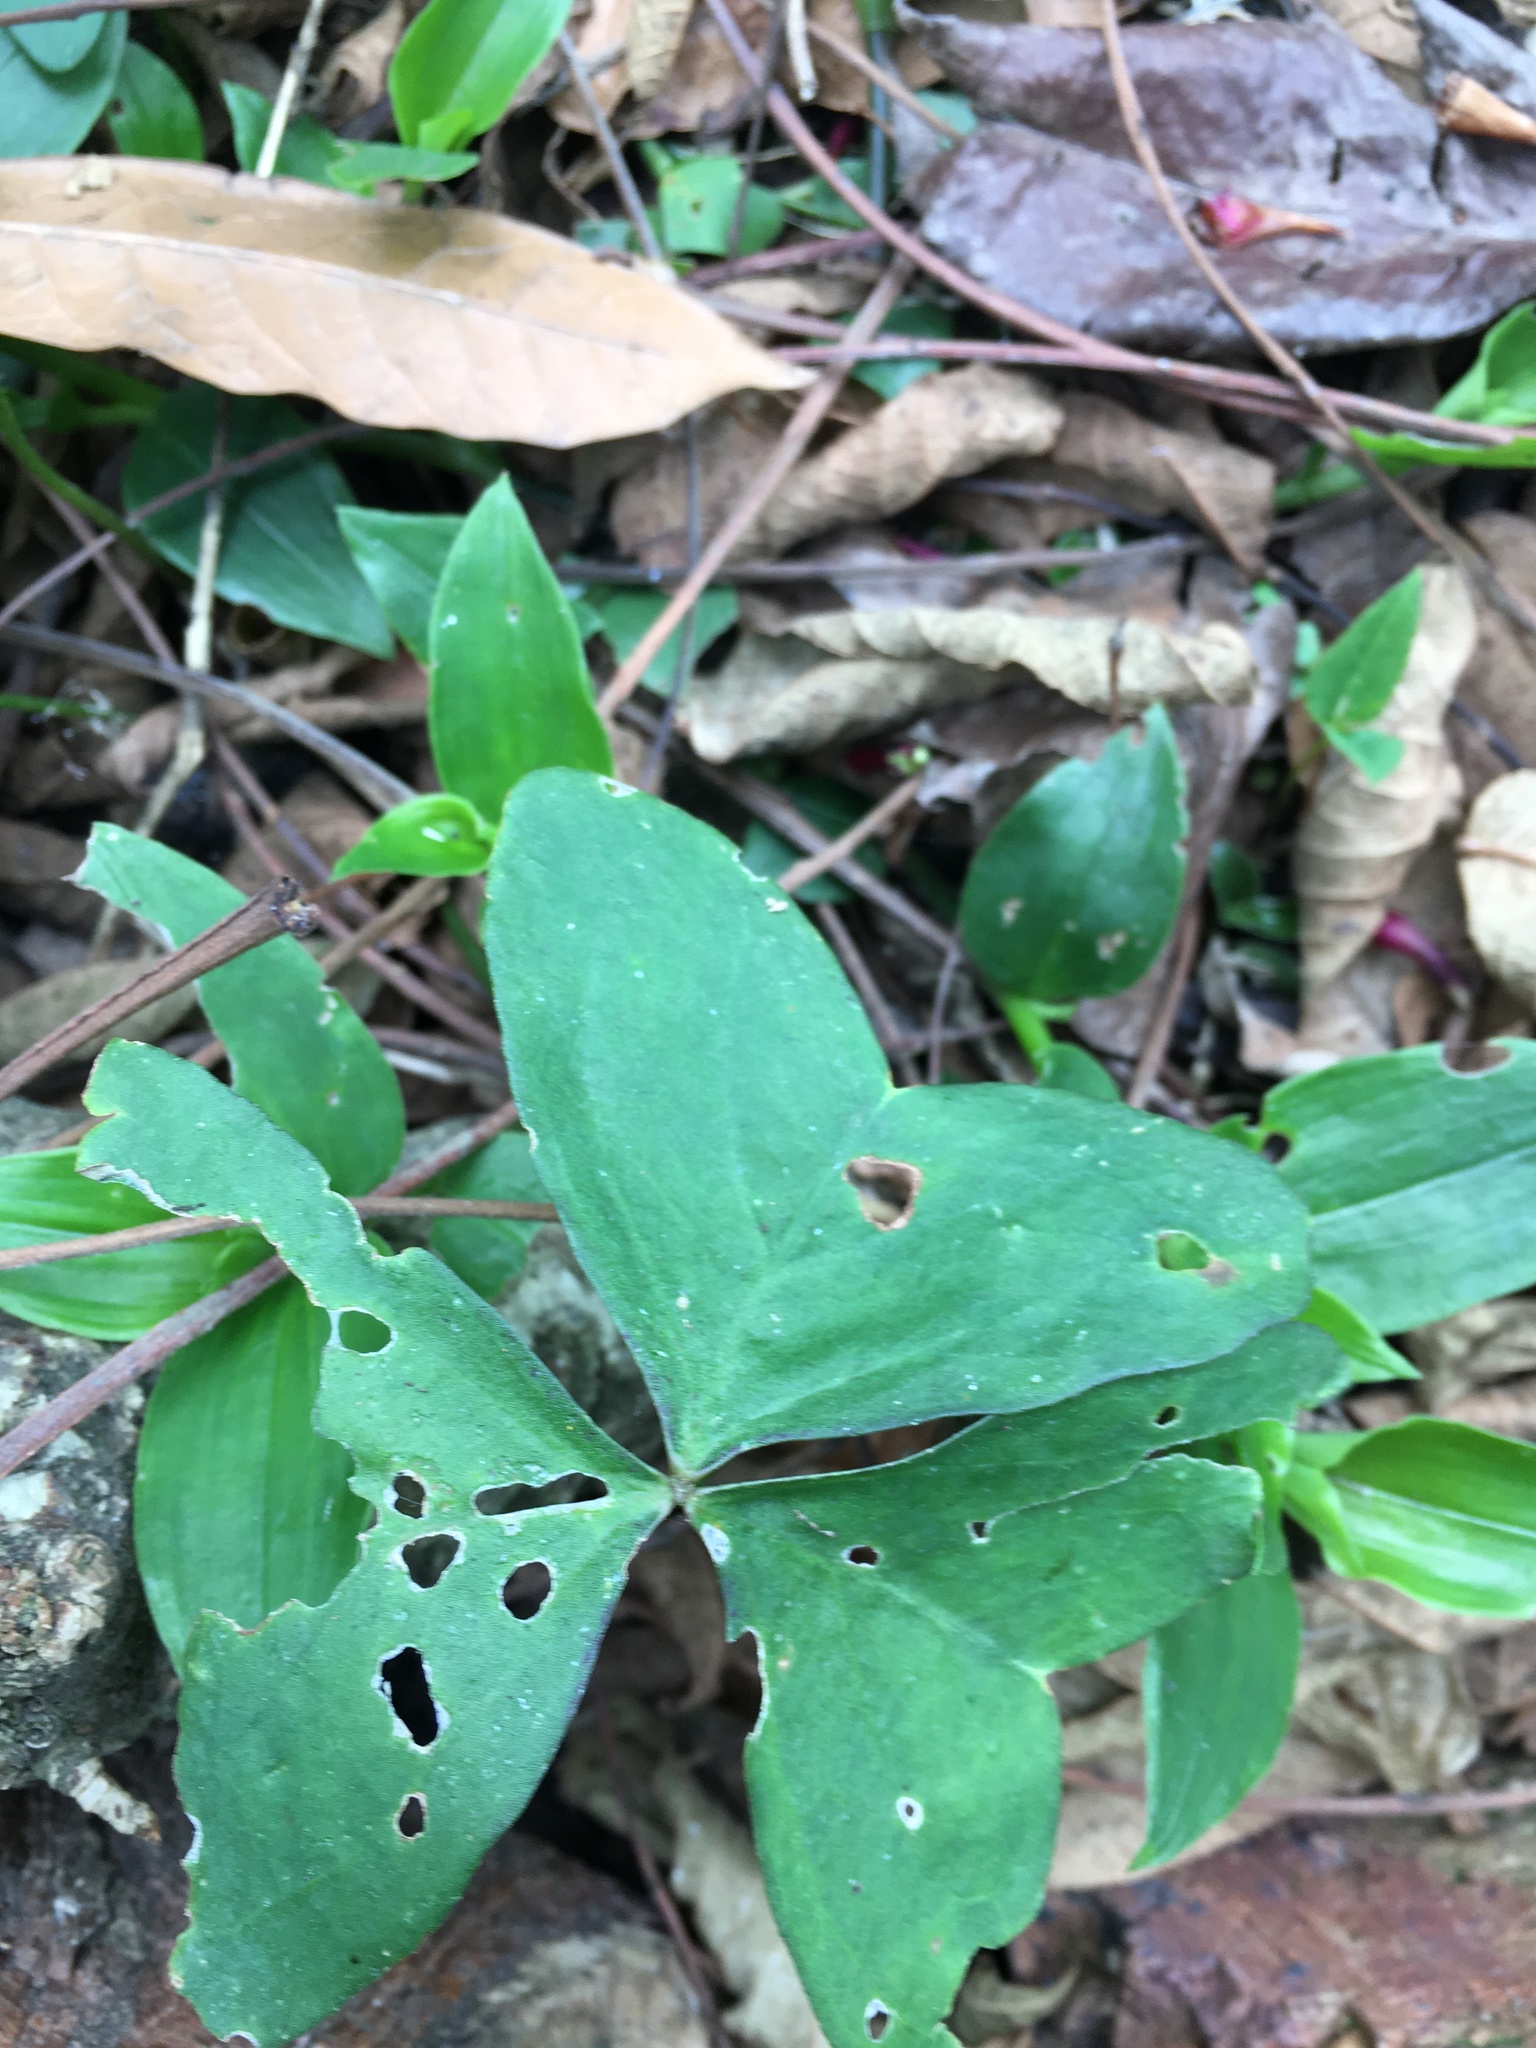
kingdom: Plantae
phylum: Tracheophyta
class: Magnoliopsida
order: Oxalidales
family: Oxalidaceae
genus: Oxalis
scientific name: Oxalis latifolia
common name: Garden pink-sorrel
